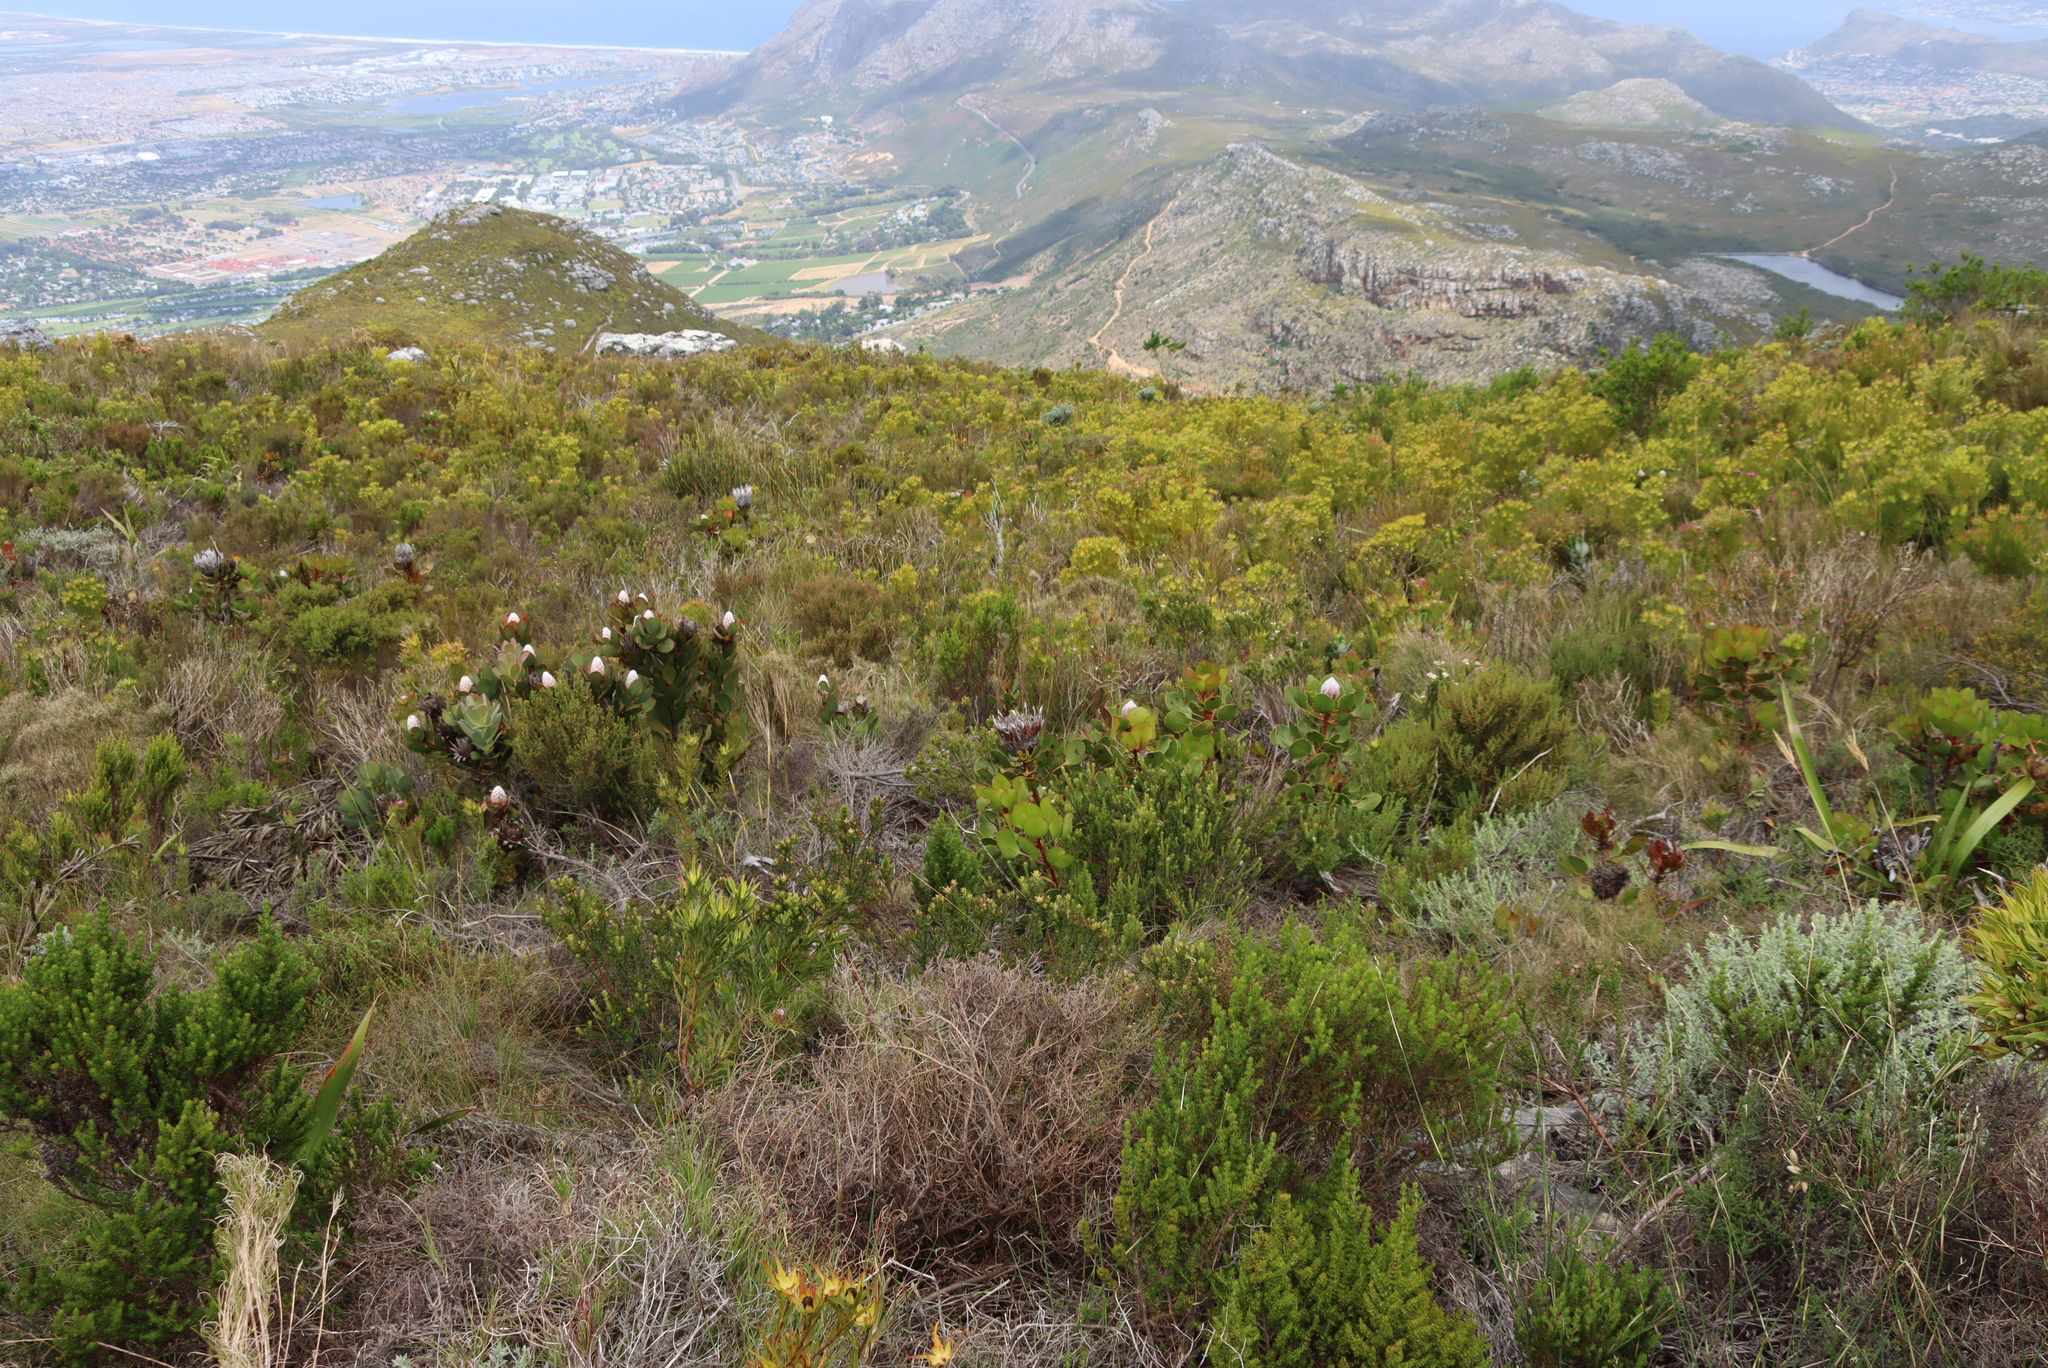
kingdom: Plantae
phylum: Tracheophyta
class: Magnoliopsida
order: Proteales
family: Proteaceae
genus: Protea
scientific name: Protea speciosa
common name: Brown-beard sugarbush
